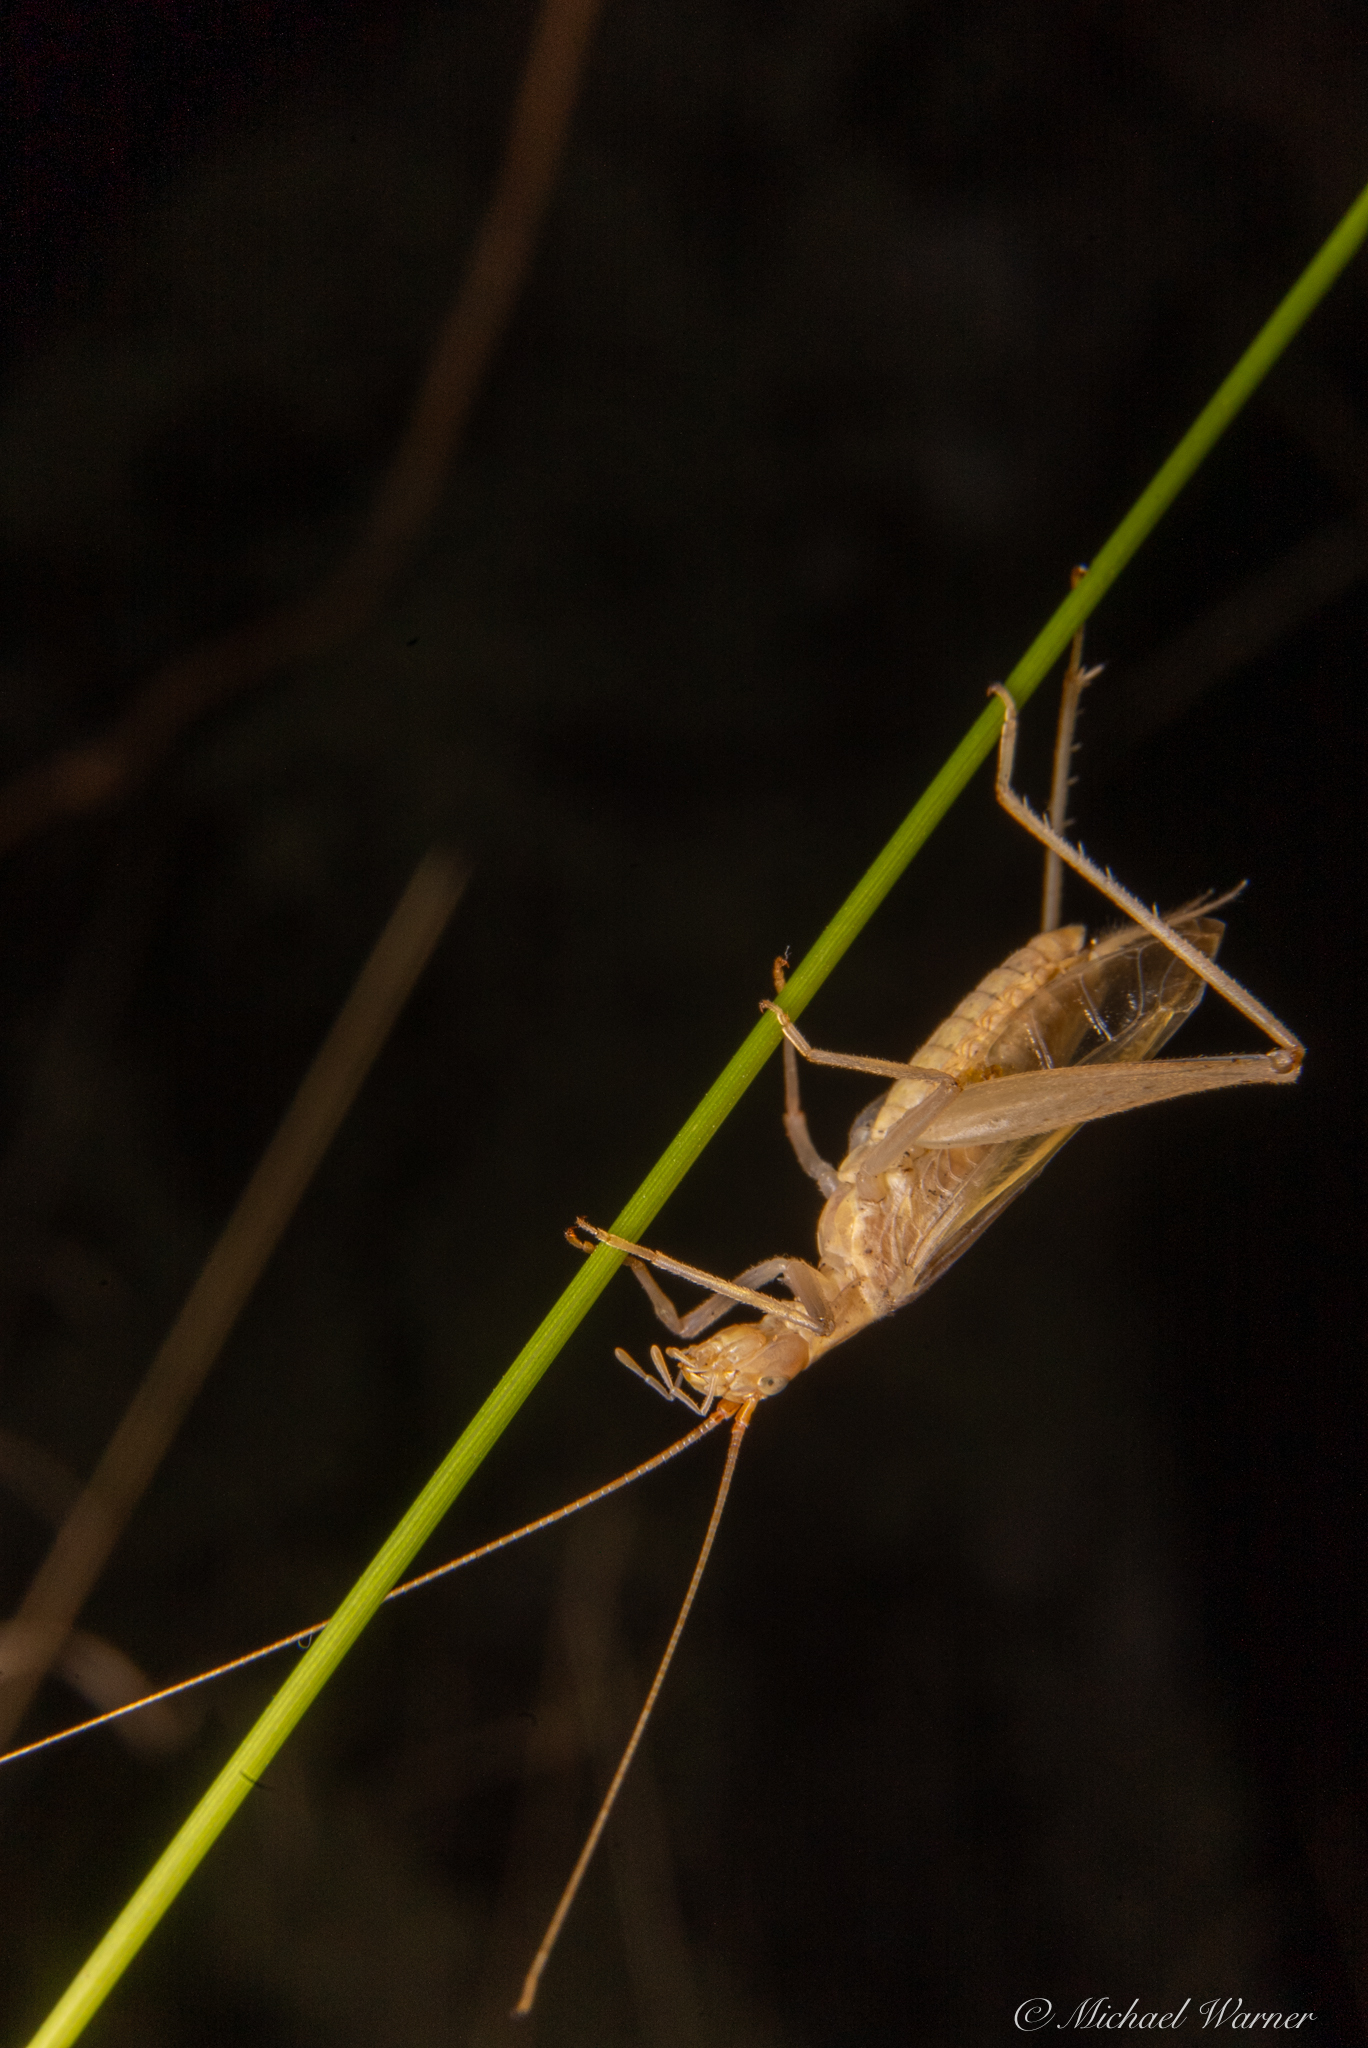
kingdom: Animalia
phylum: Arthropoda
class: Insecta
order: Orthoptera
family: Gryllidae
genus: Oecanthus
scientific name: Oecanthus californicus
